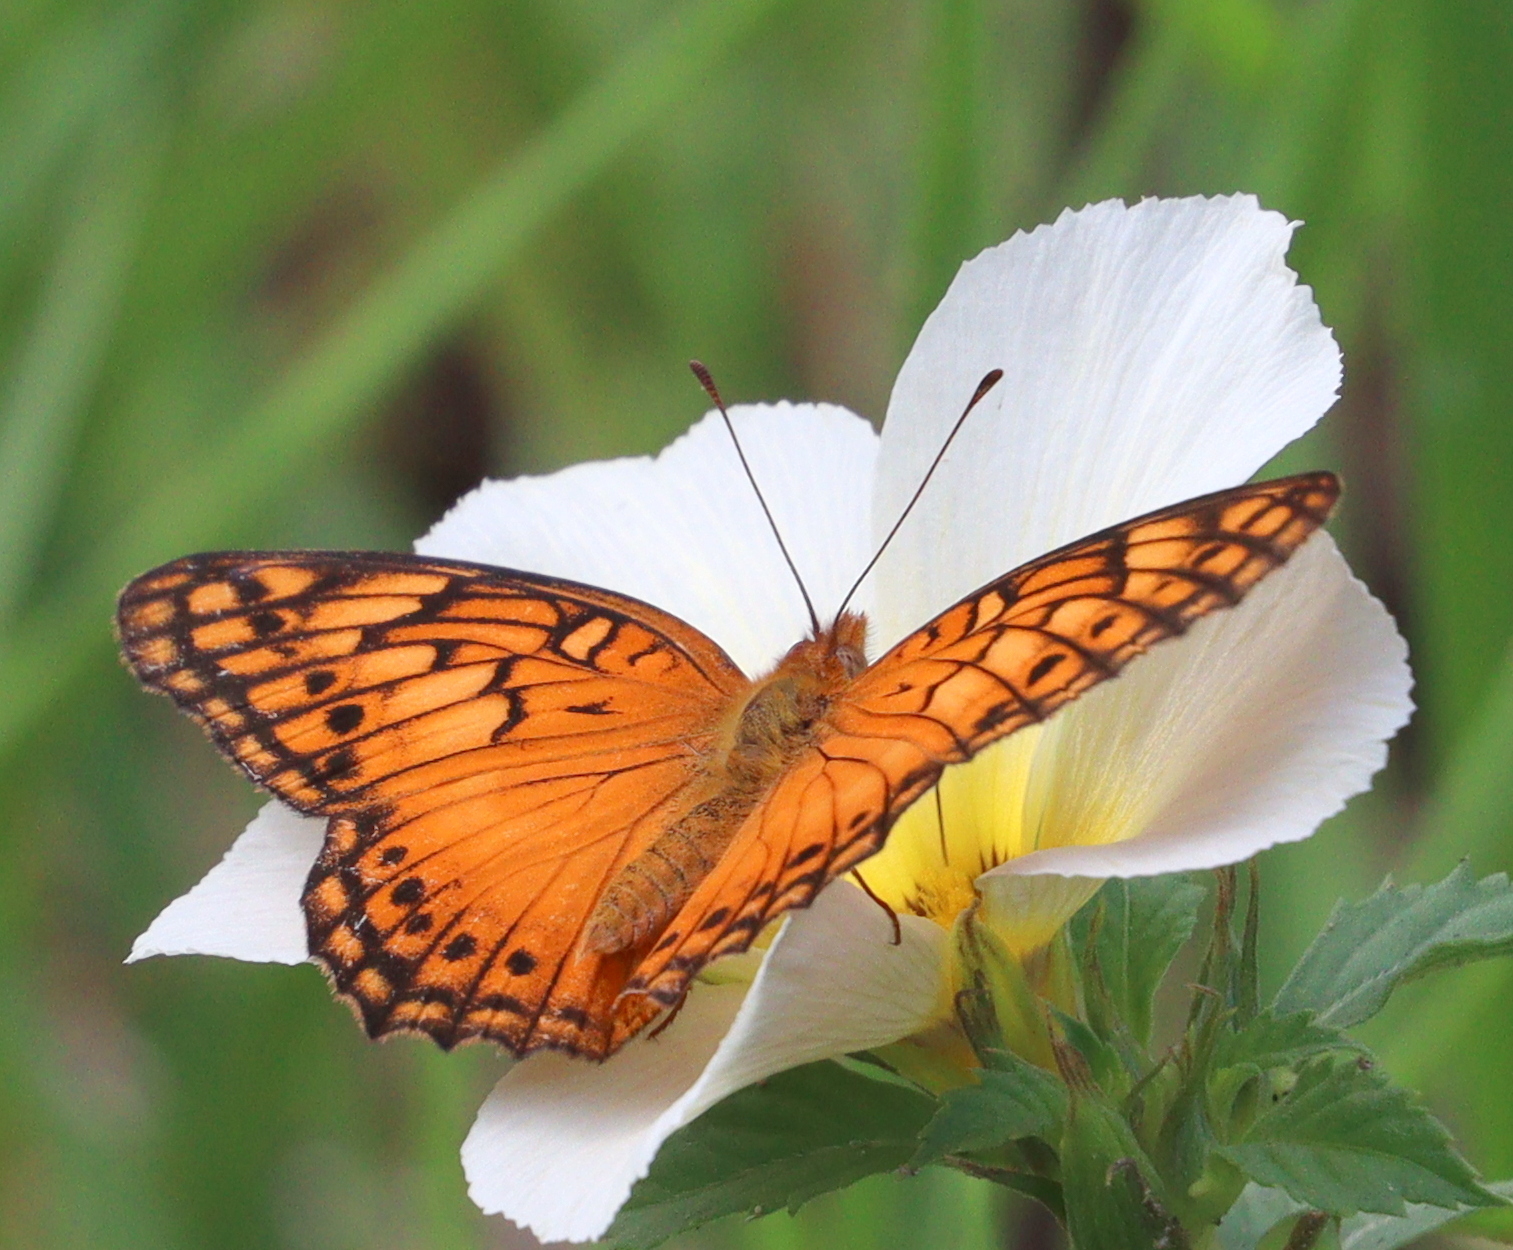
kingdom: Animalia
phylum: Arthropoda
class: Insecta
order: Lepidoptera
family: Nymphalidae
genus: Euptoieta
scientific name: Euptoieta hegesia
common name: Mexican fritillary
